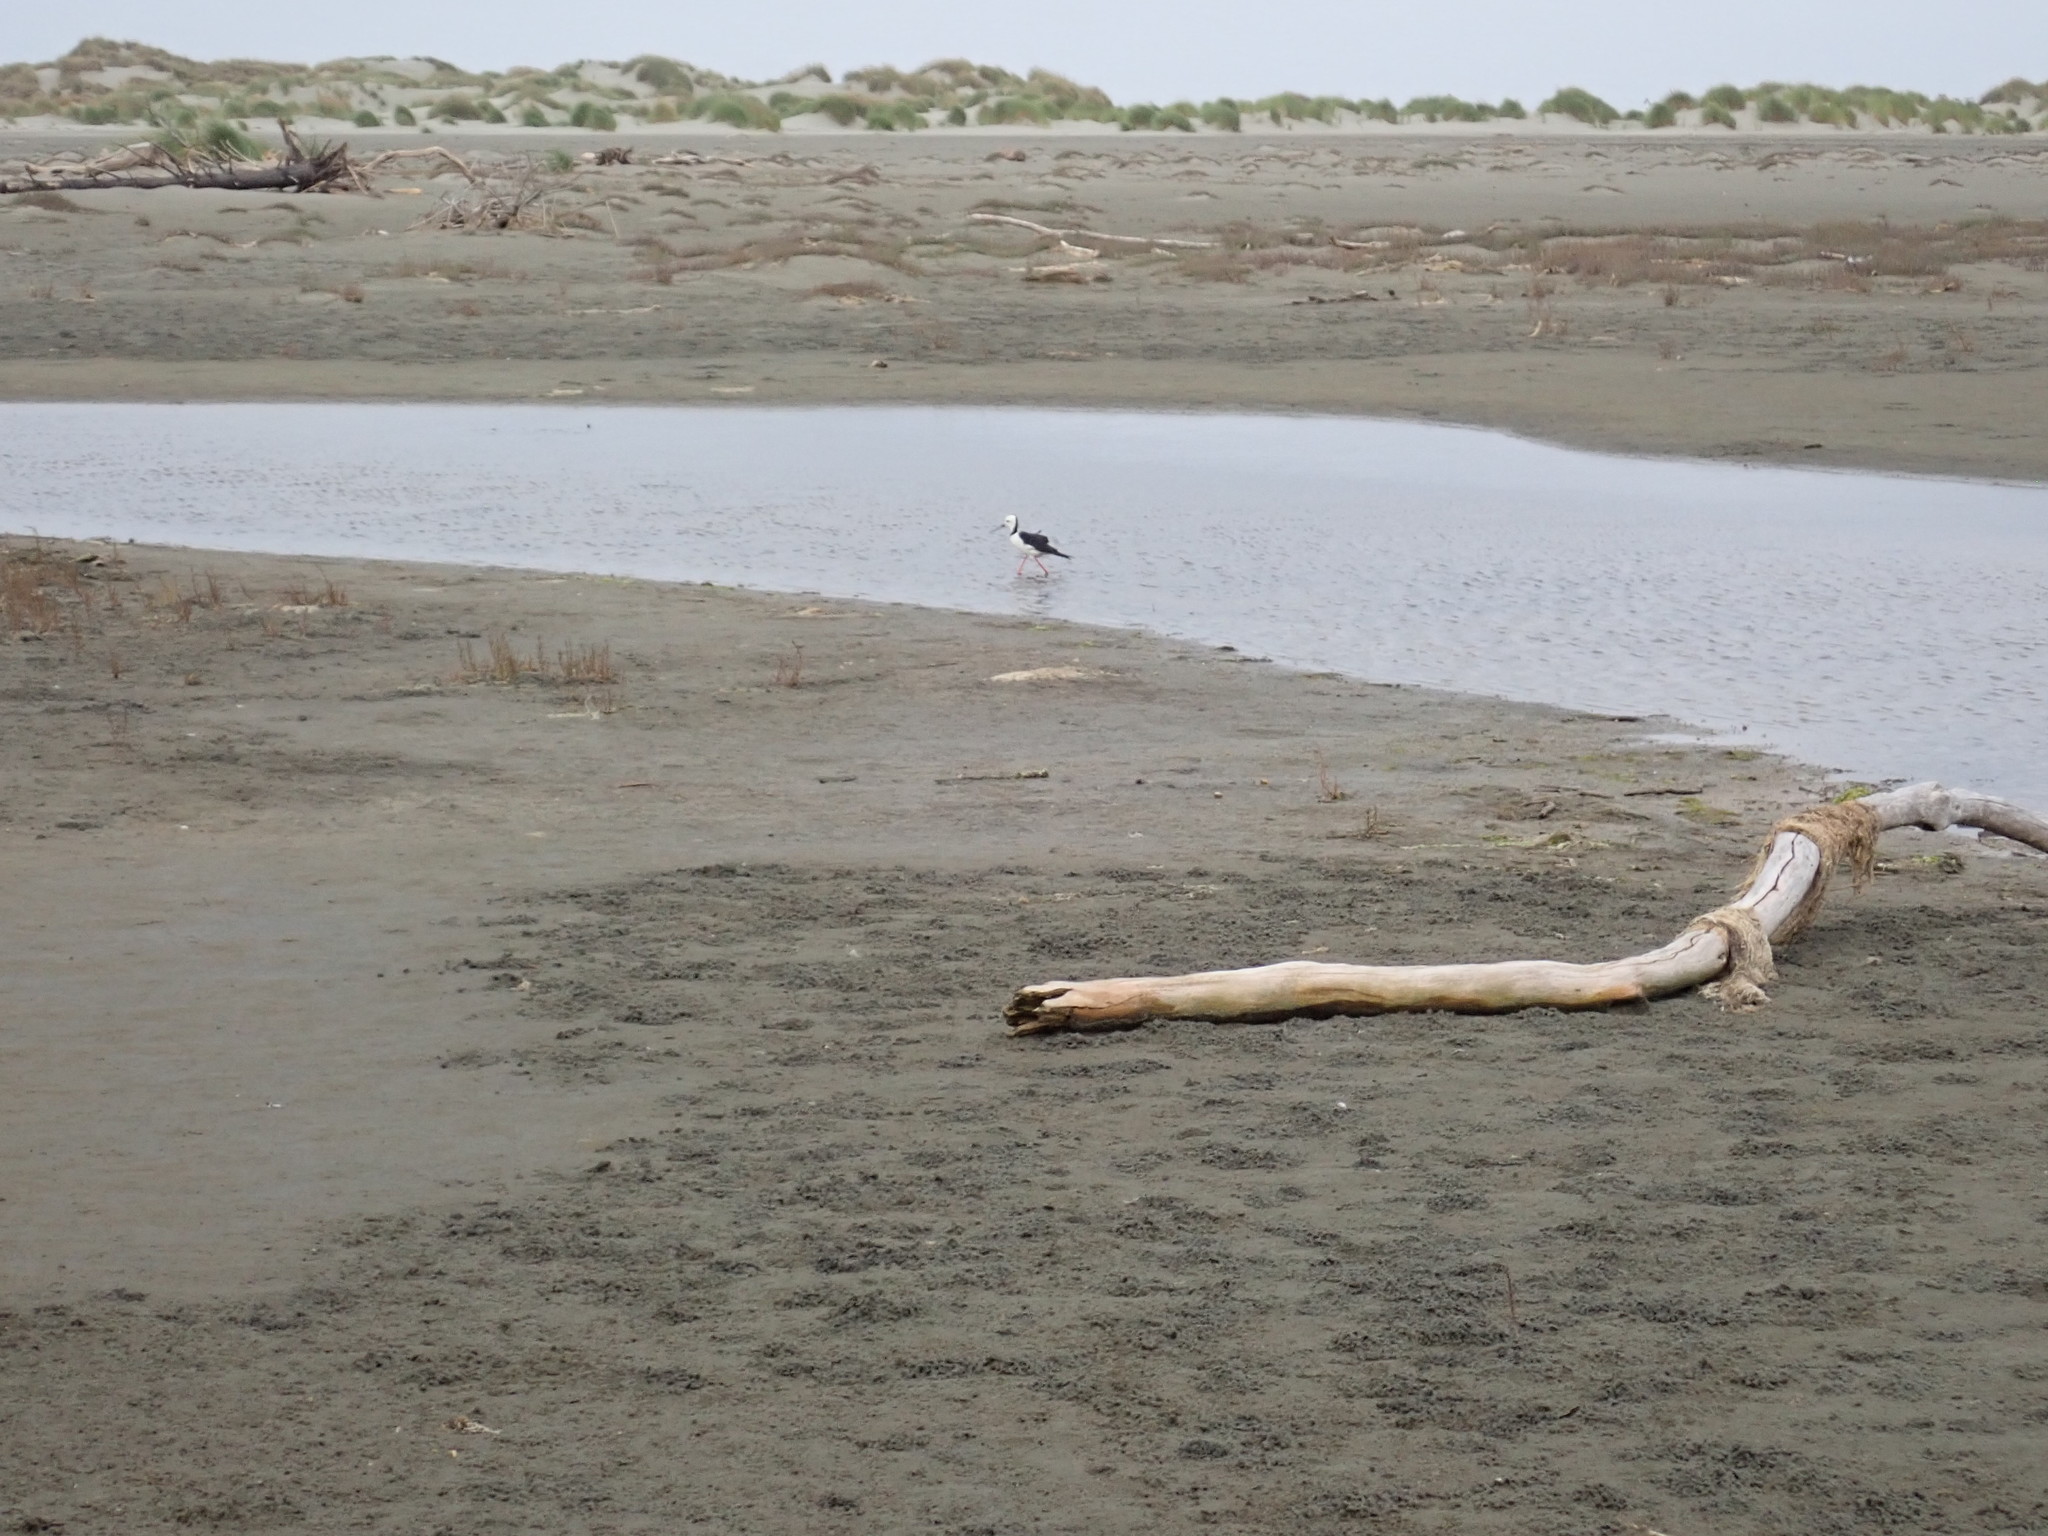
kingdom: Animalia
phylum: Chordata
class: Aves
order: Charadriiformes
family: Recurvirostridae
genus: Himantopus
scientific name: Himantopus leucocephalus
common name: White-headed stilt
